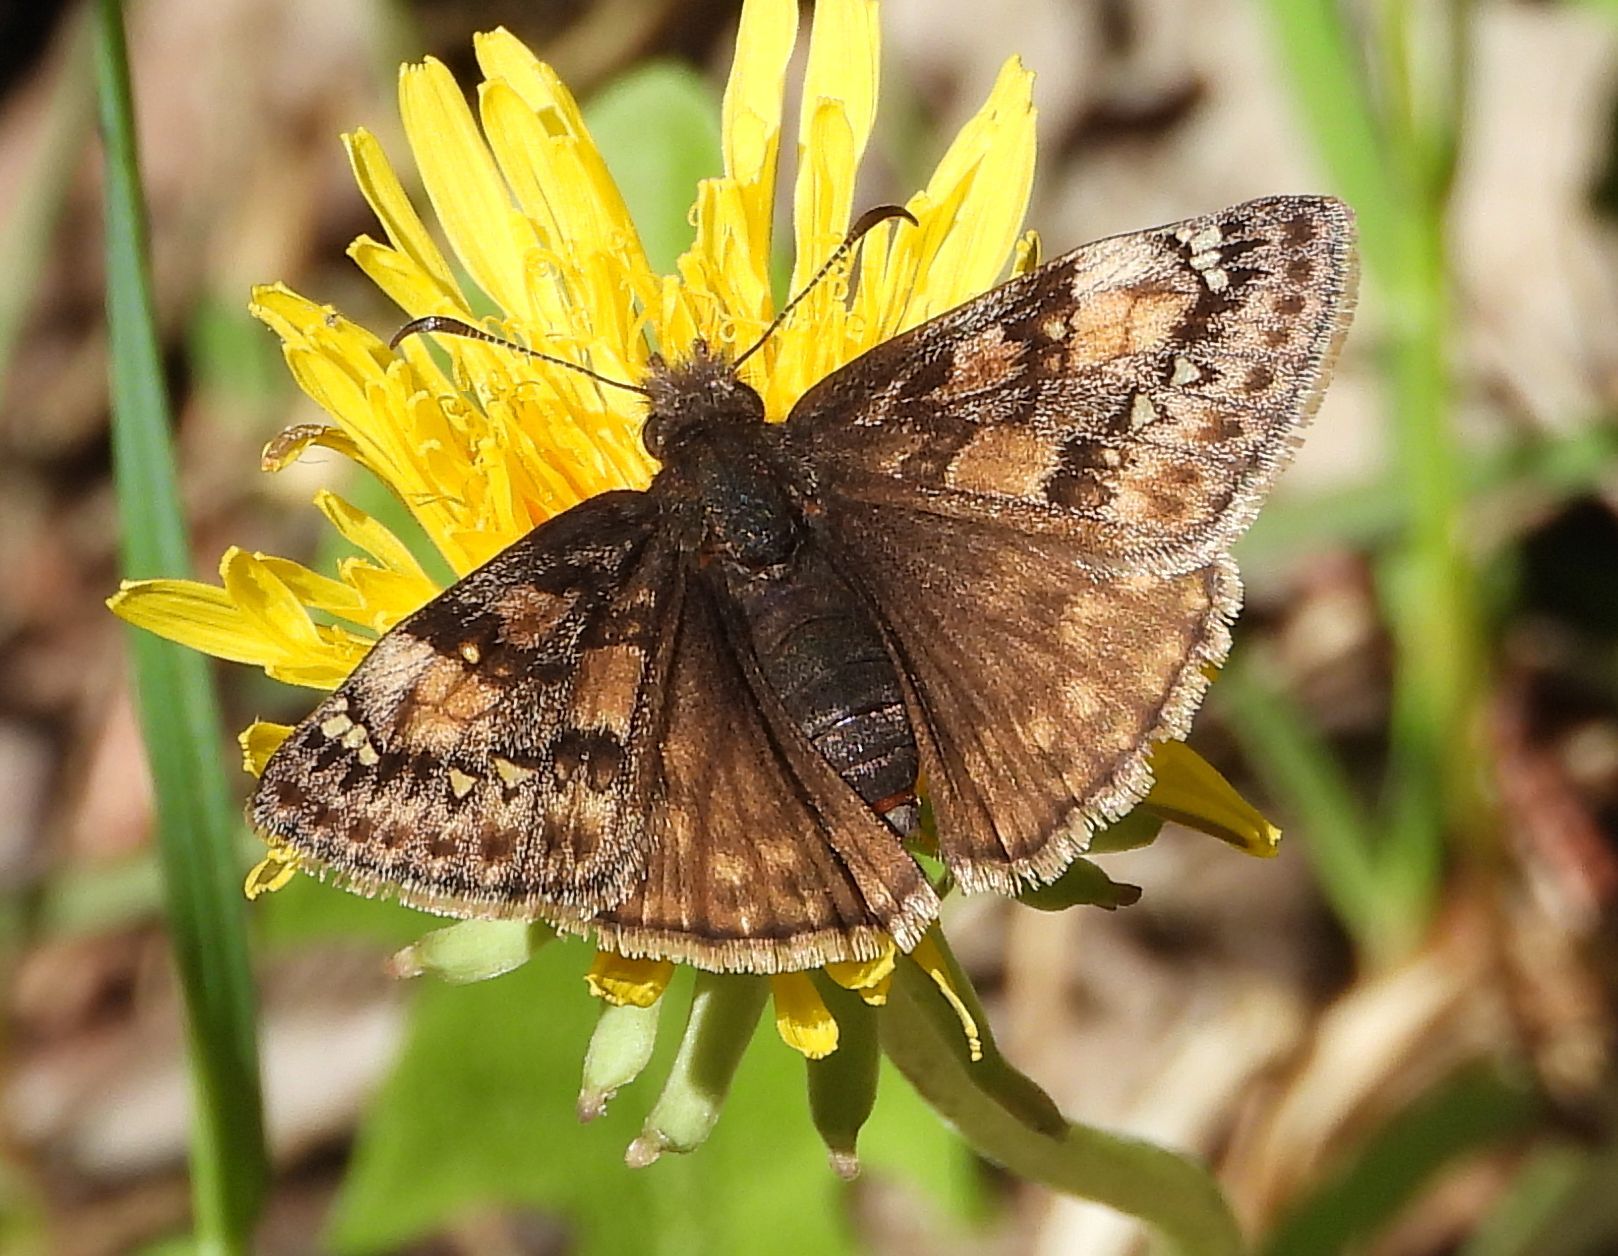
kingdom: Animalia
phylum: Arthropoda
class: Insecta
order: Lepidoptera
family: Hesperiidae
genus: Erynnis
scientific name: Erynnis juvenalis
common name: Juvenal's duskywing
